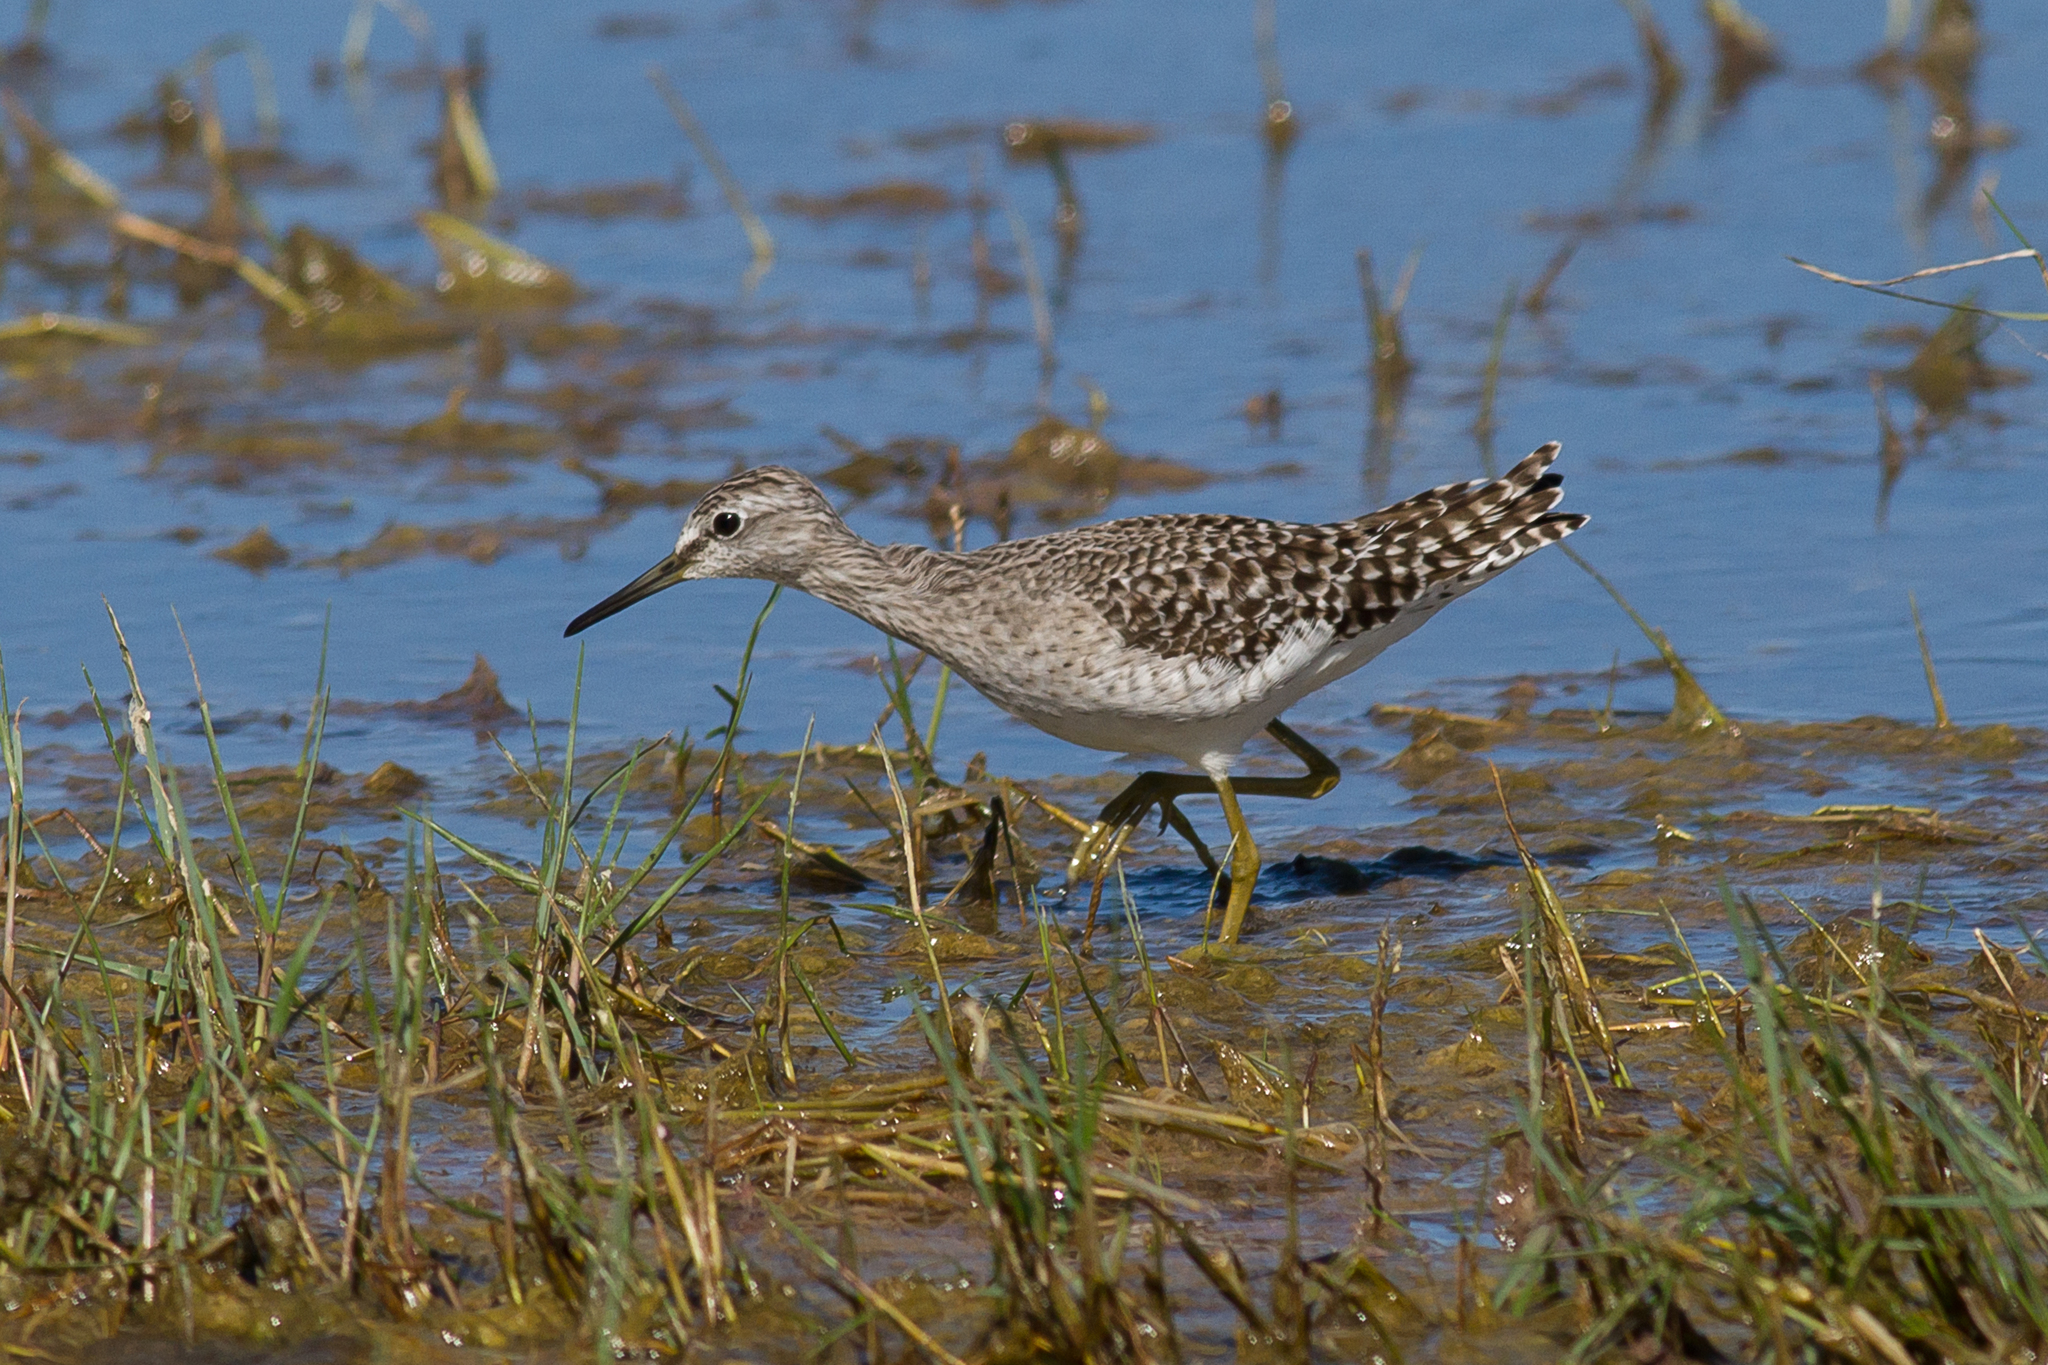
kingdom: Animalia
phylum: Chordata
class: Aves
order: Charadriiformes
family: Scolopacidae
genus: Tringa
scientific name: Tringa glareola
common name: Wood sandpiper
